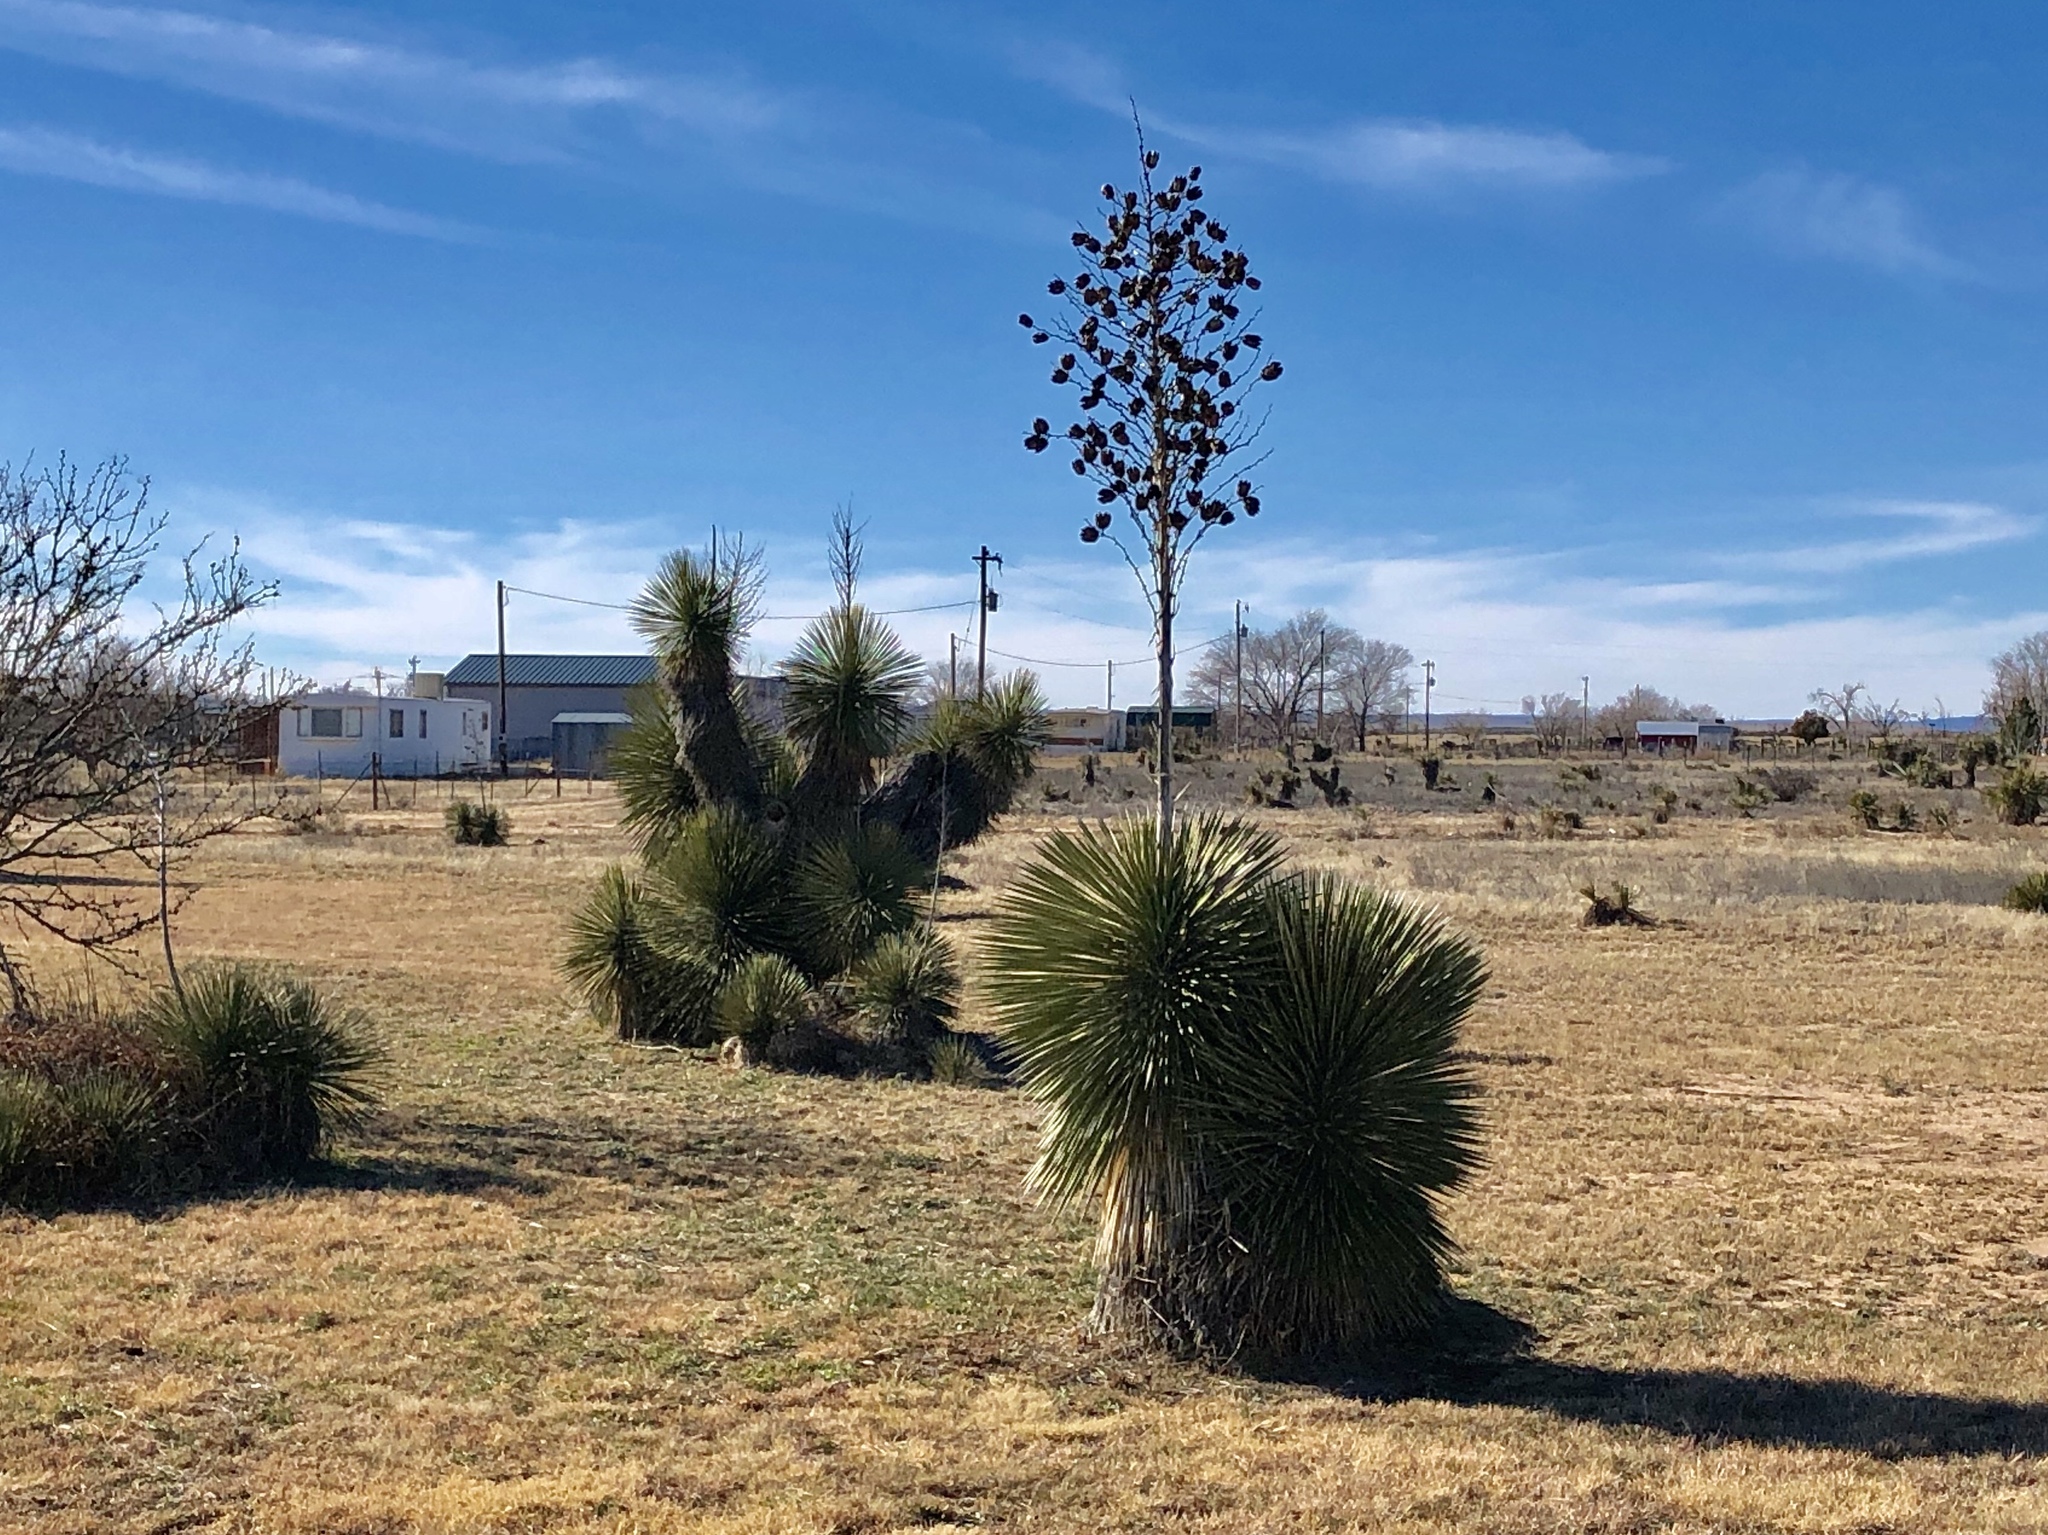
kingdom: Plantae
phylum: Tracheophyta
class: Liliopsida
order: Asparagales
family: Asparagaceae
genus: Yucca
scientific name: Yucca elata
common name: Palmella
